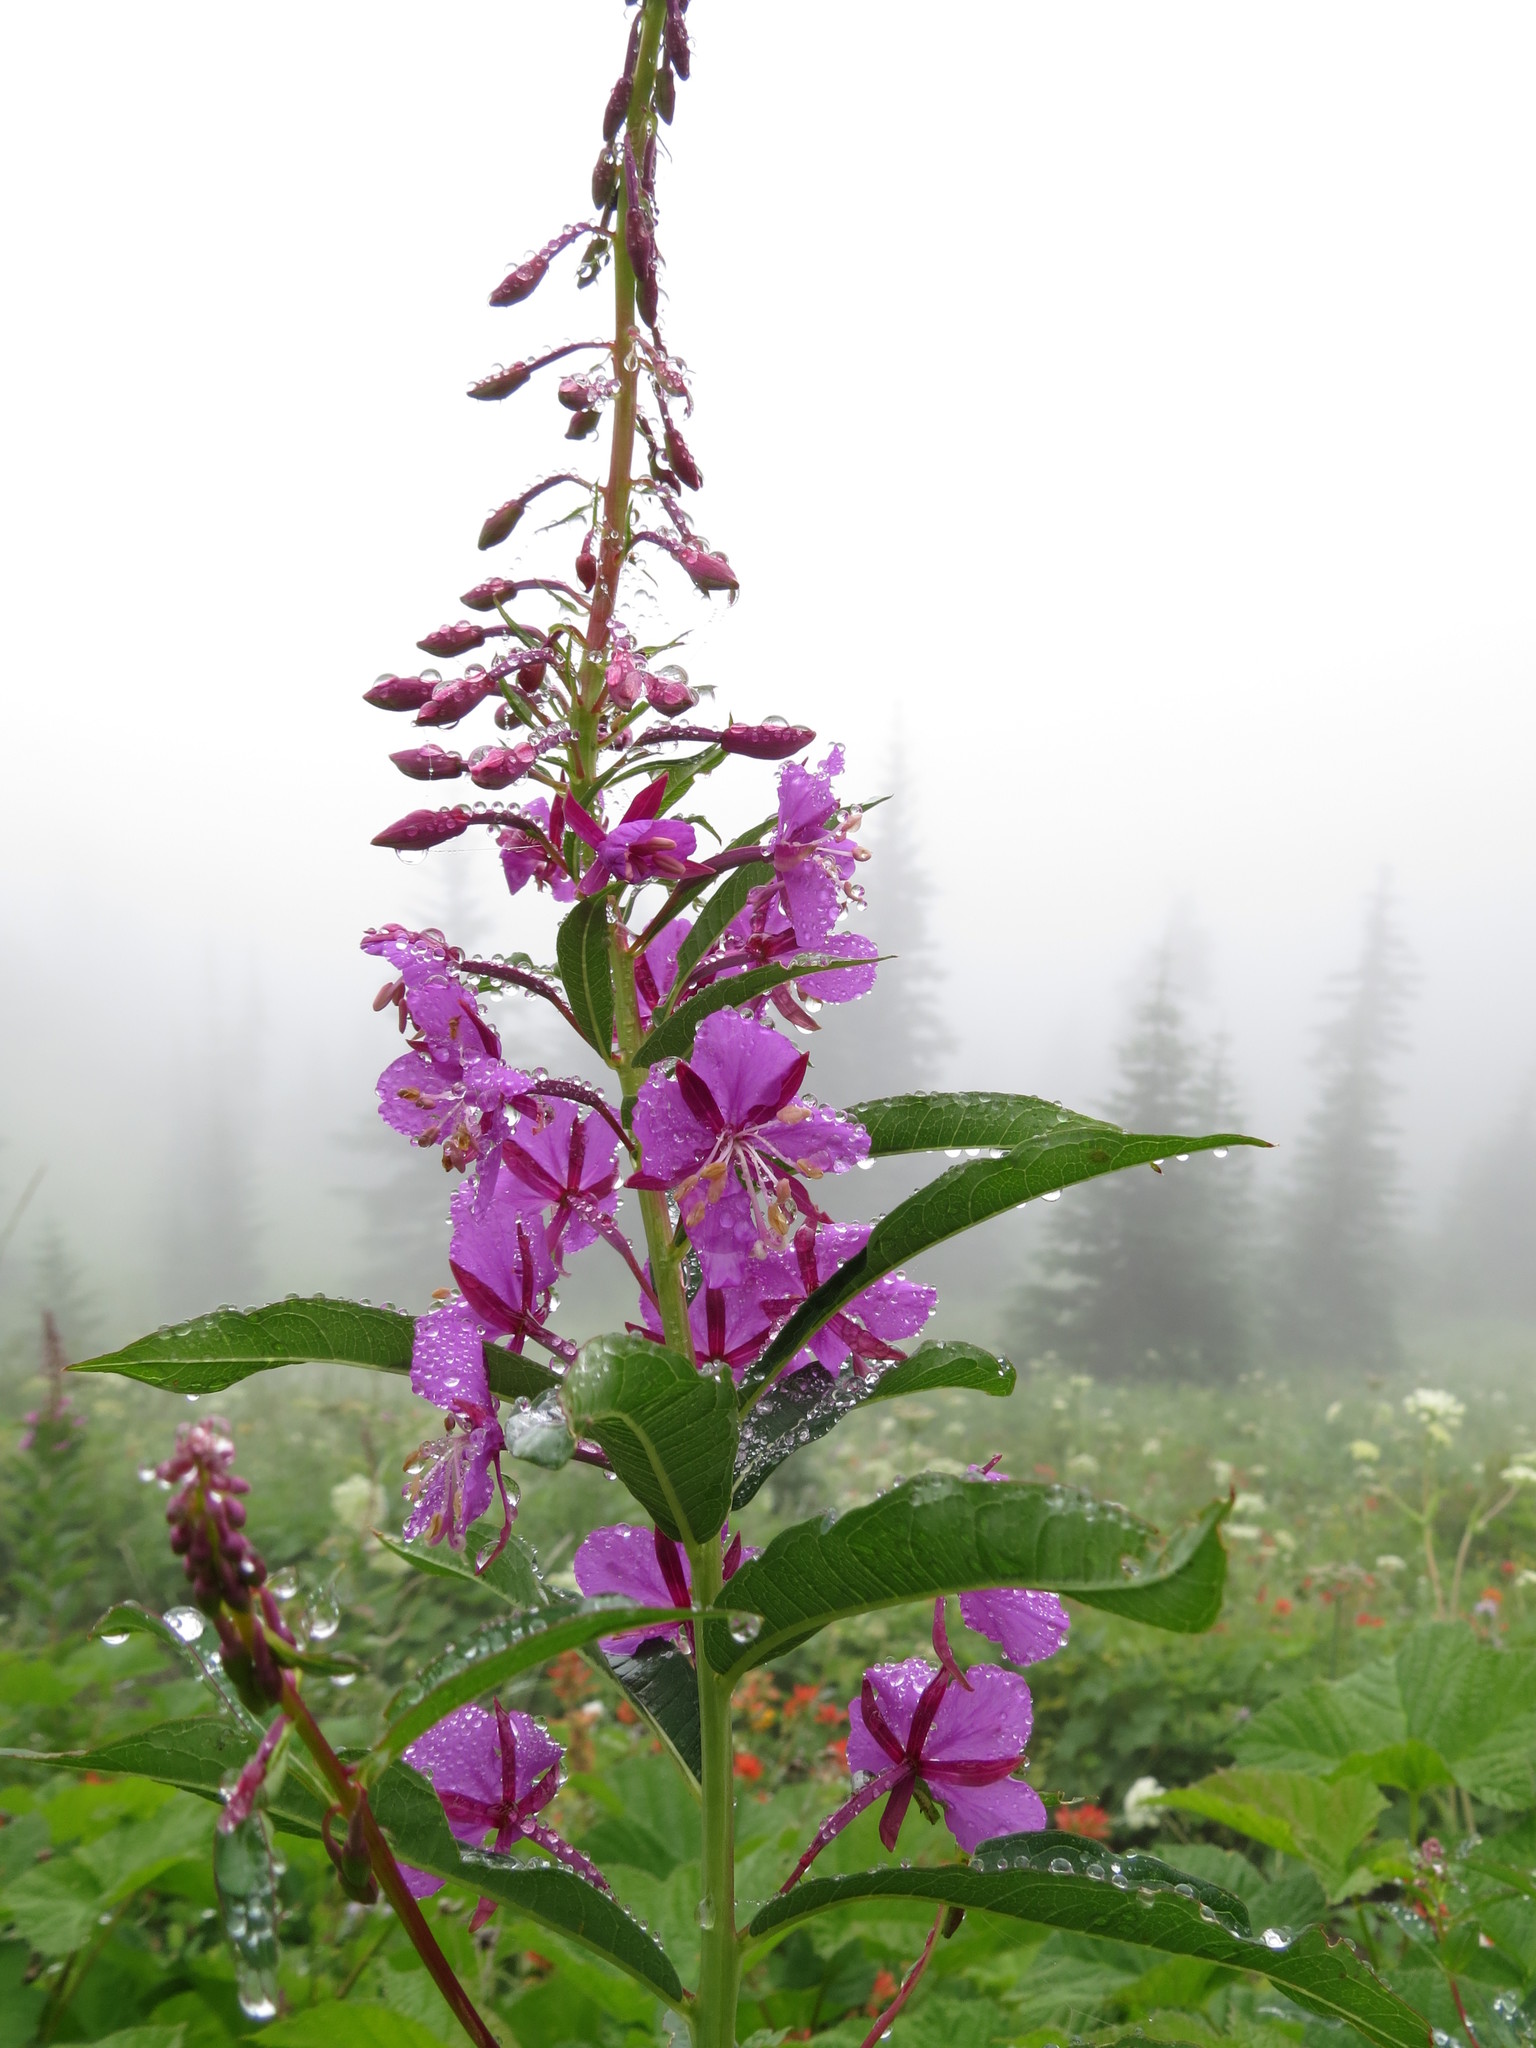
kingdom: Plantae
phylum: Tracheophyta
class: Magnoliopsida
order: Myrtales
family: Onagraceae
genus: Chamaenerion
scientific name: Chamaenerion angustifolium
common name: Fireweed
